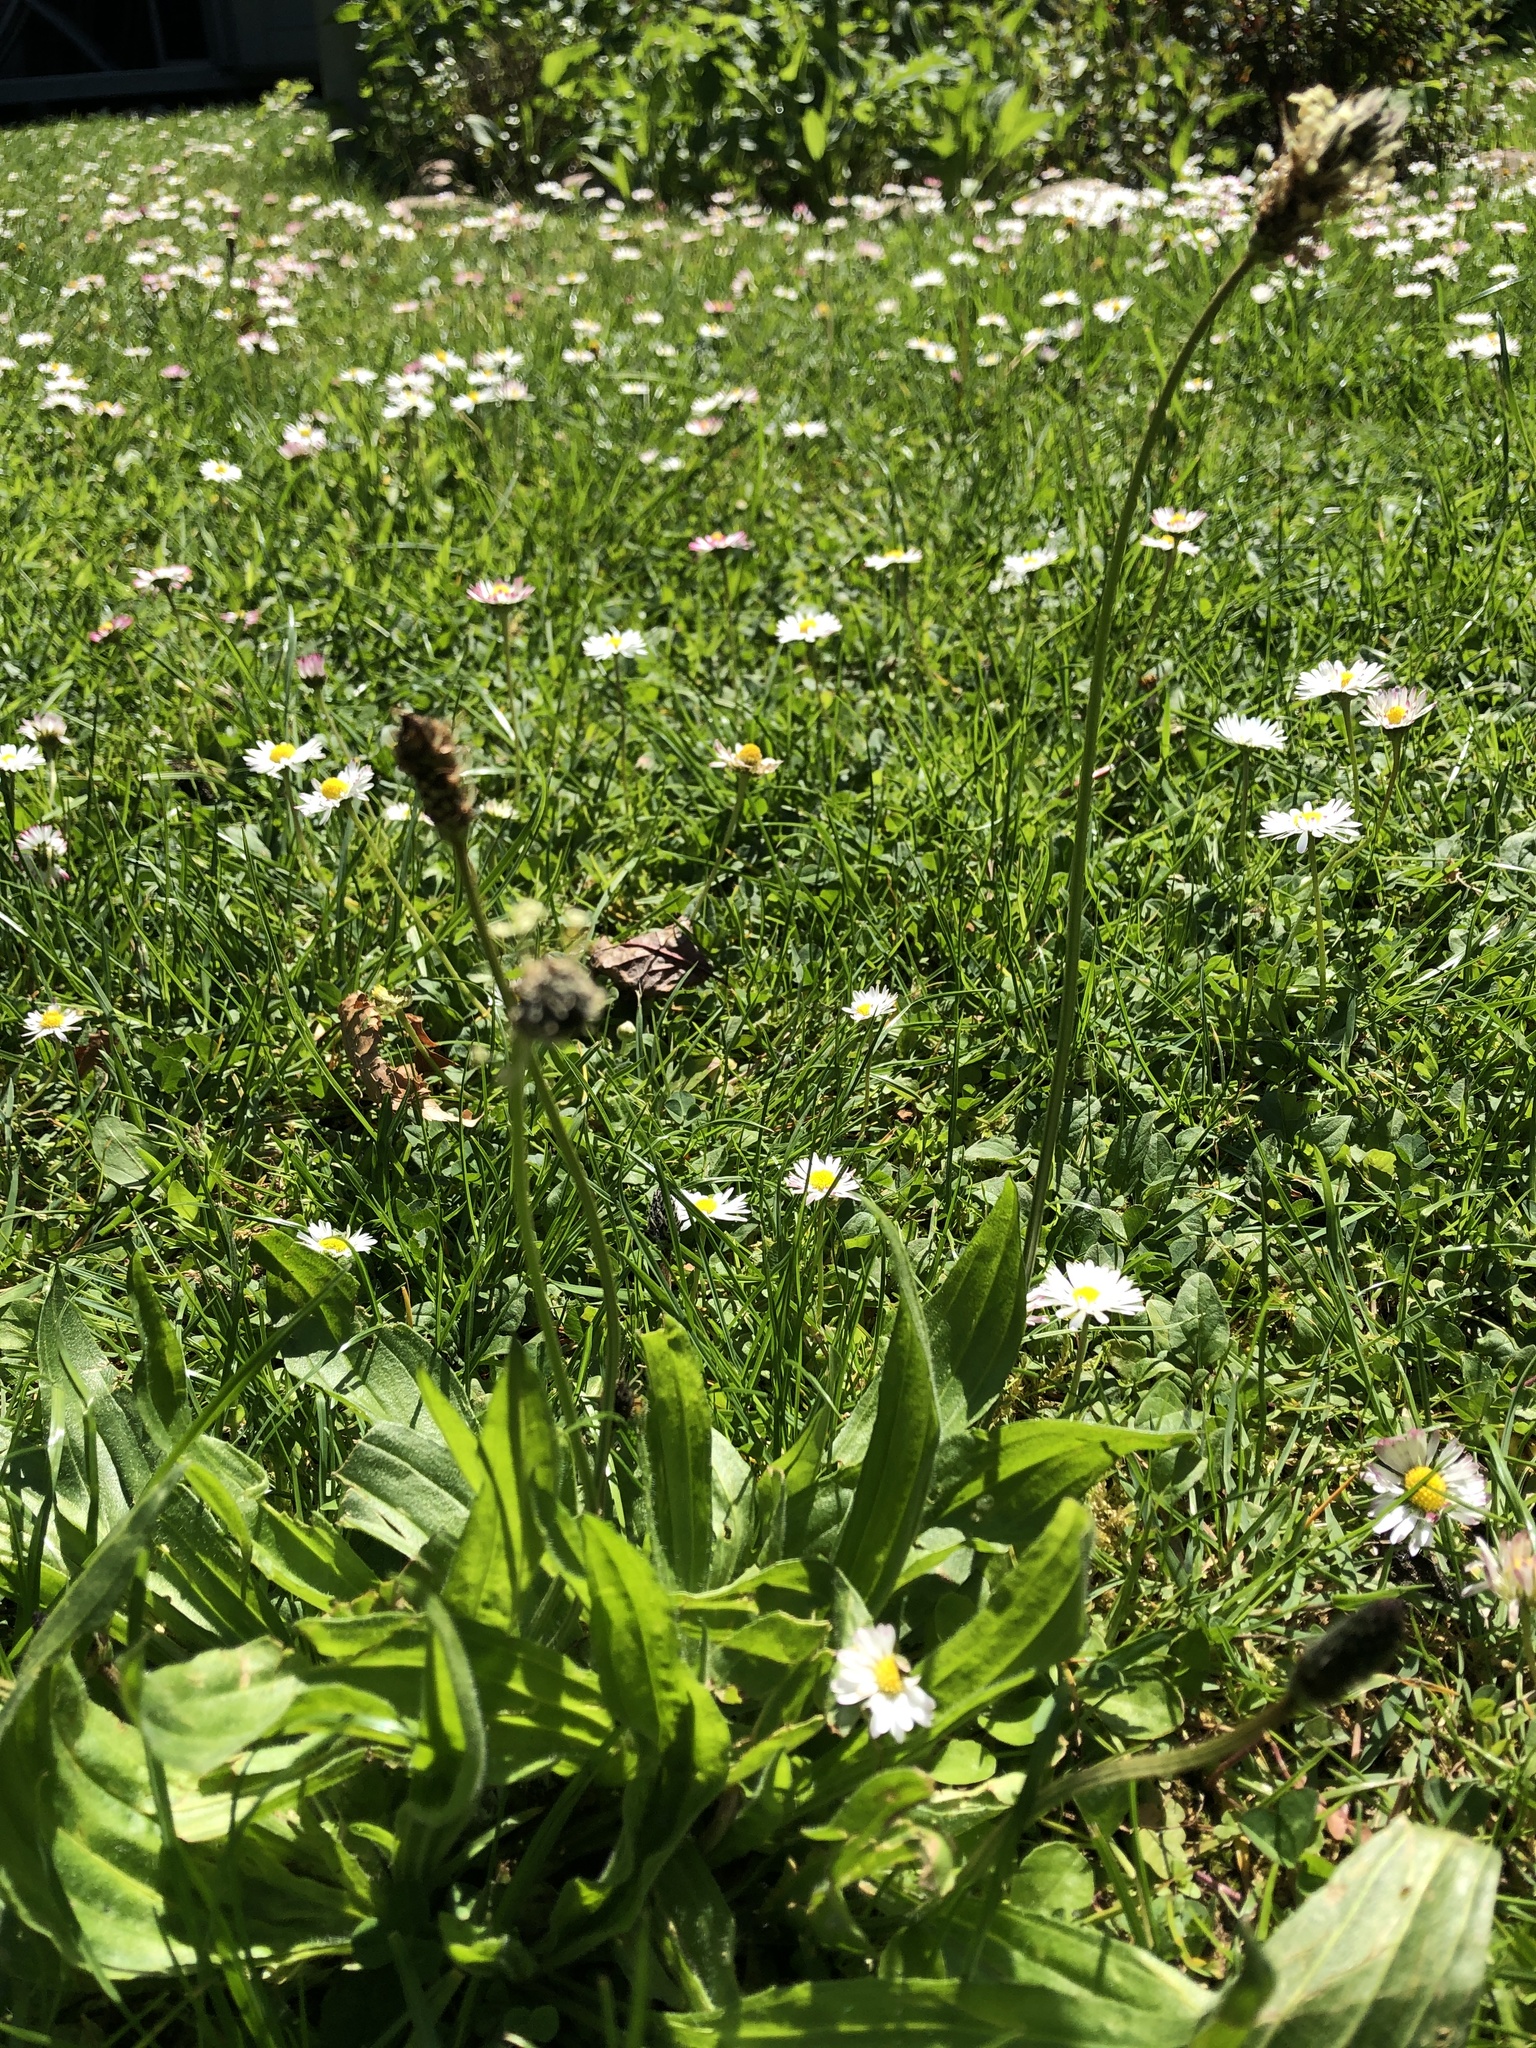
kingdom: Plantae
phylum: Tracheophyta
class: Magnoliopsida
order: Lamiales
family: Plantaginaceae
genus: Plantago
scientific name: Plantago lanceolata
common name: Ribwort plantain
